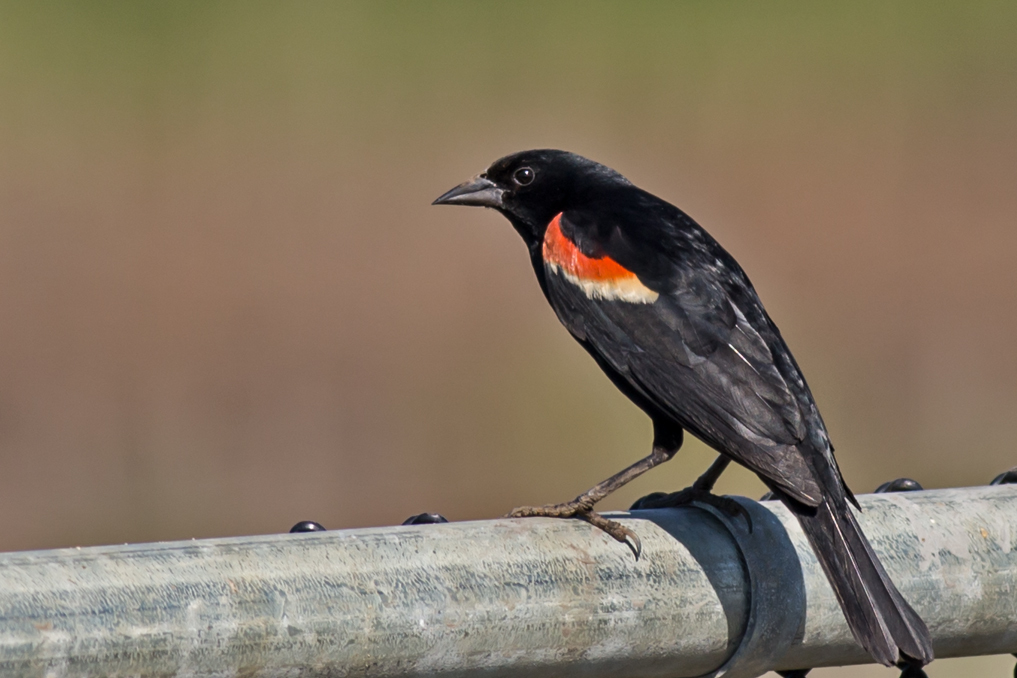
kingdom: Animalia
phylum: Chordata
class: Aves
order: Passeriformes
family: Icteridae
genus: Agelaius
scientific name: Agelaius phoeniceus
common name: Red-winged blackbird
